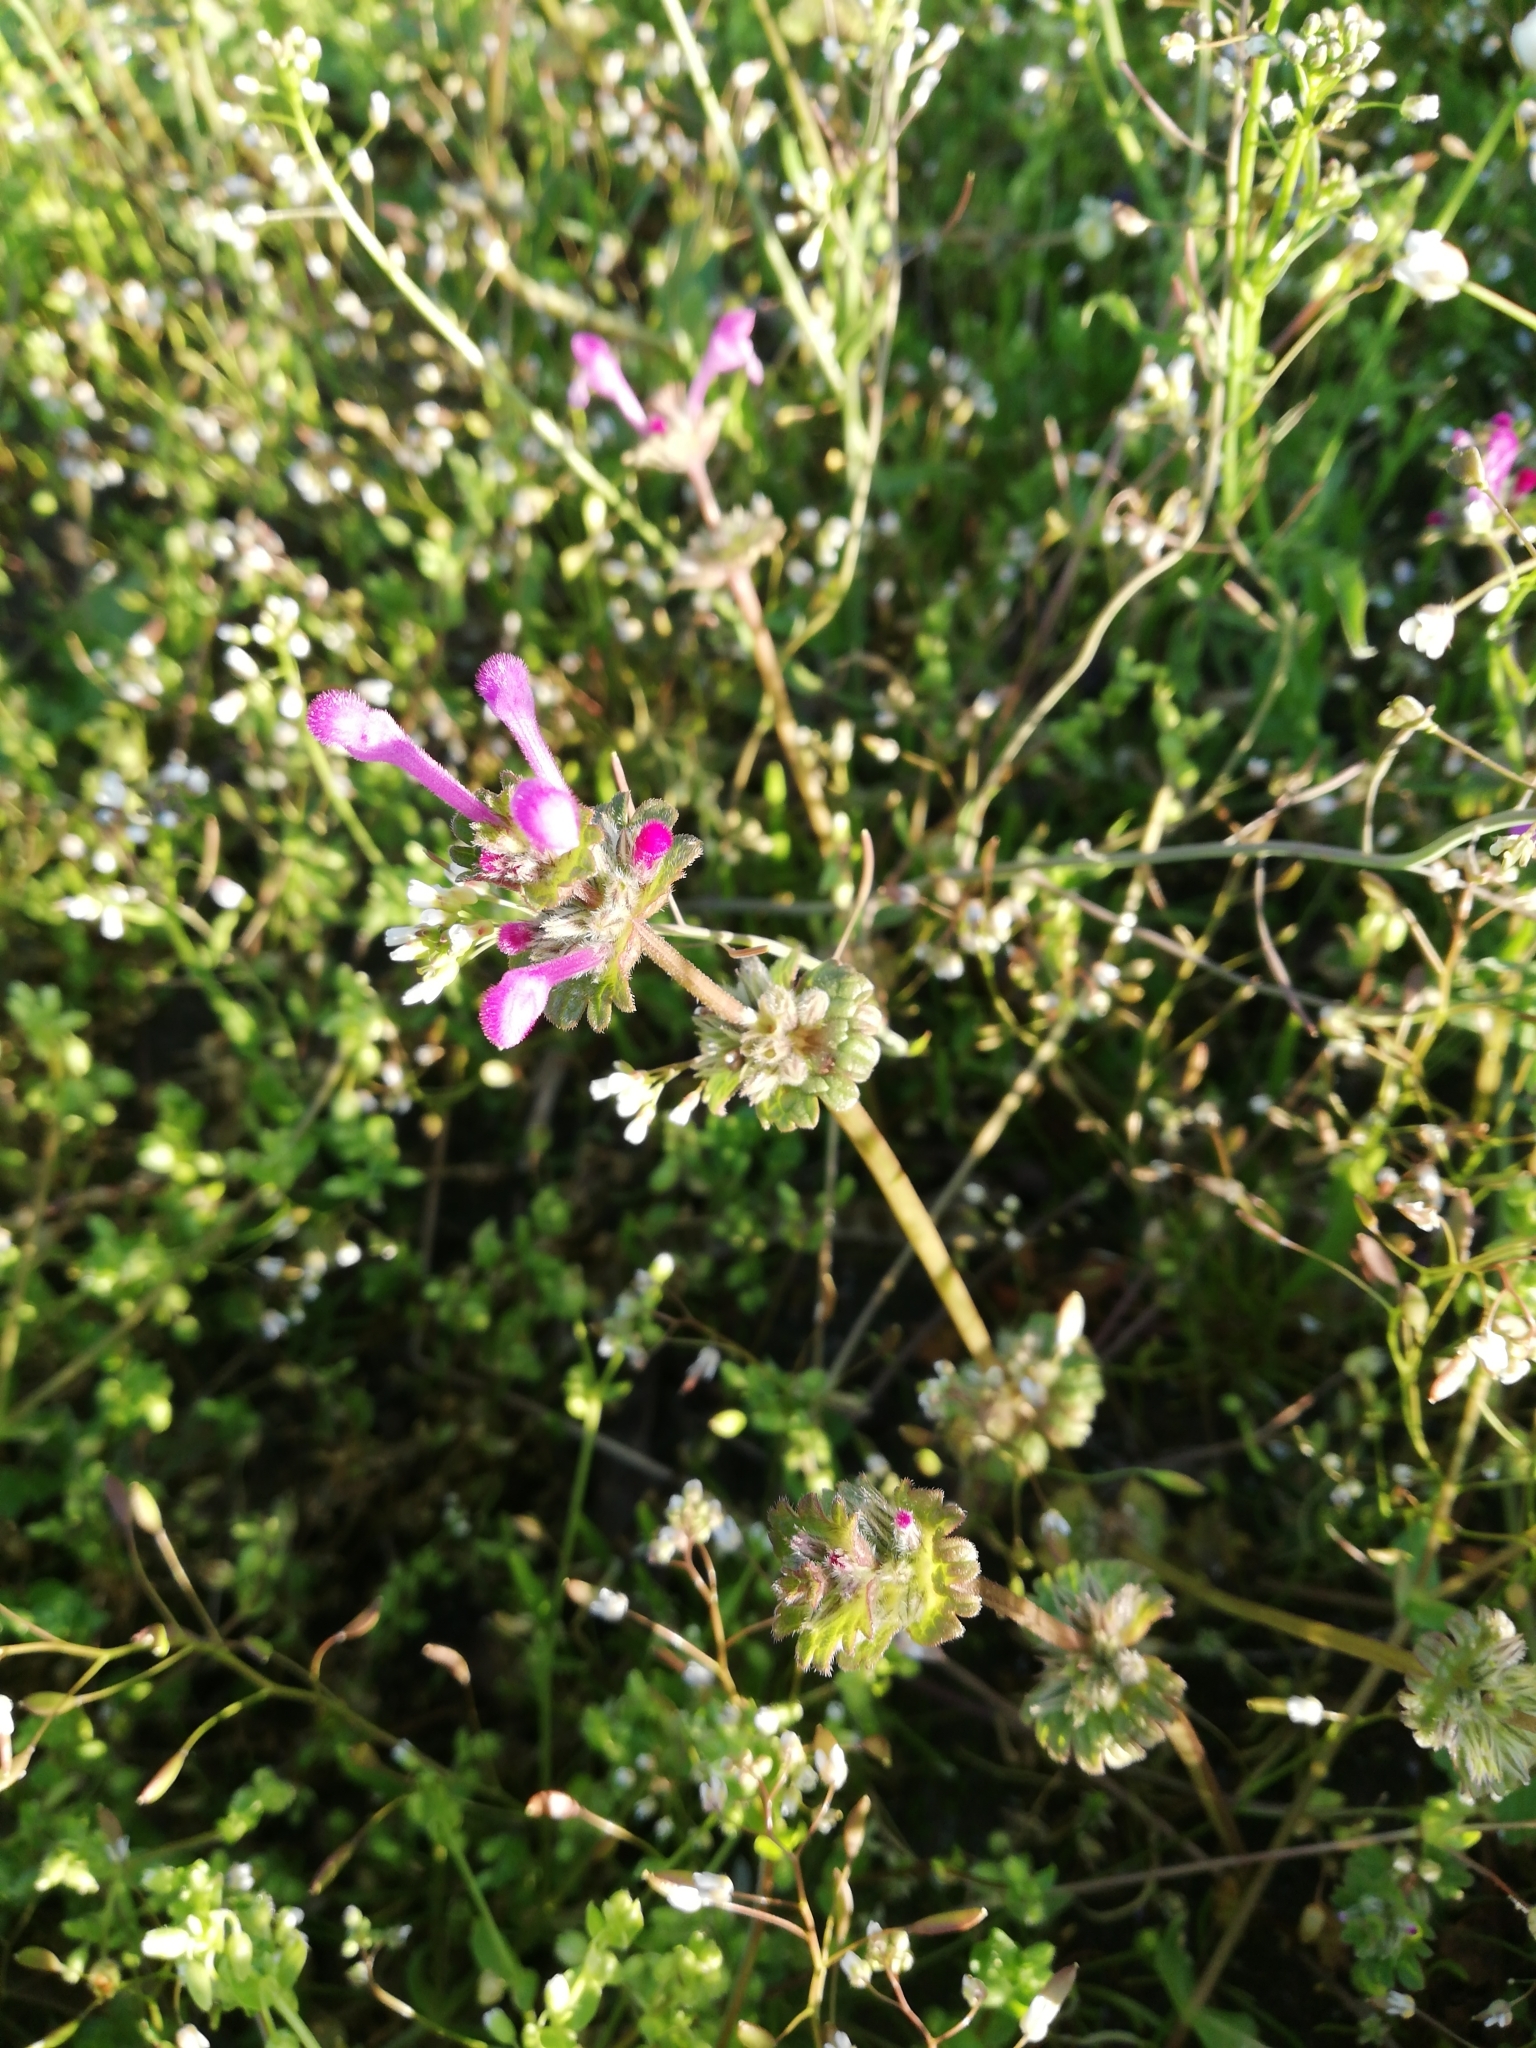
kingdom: Plantae
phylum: Tracheophyta
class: Magnoliopsida
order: Lamiales
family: Lamiaceae
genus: Lamium
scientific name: Lamium amplexicaule
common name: Henbit dead-nettle
